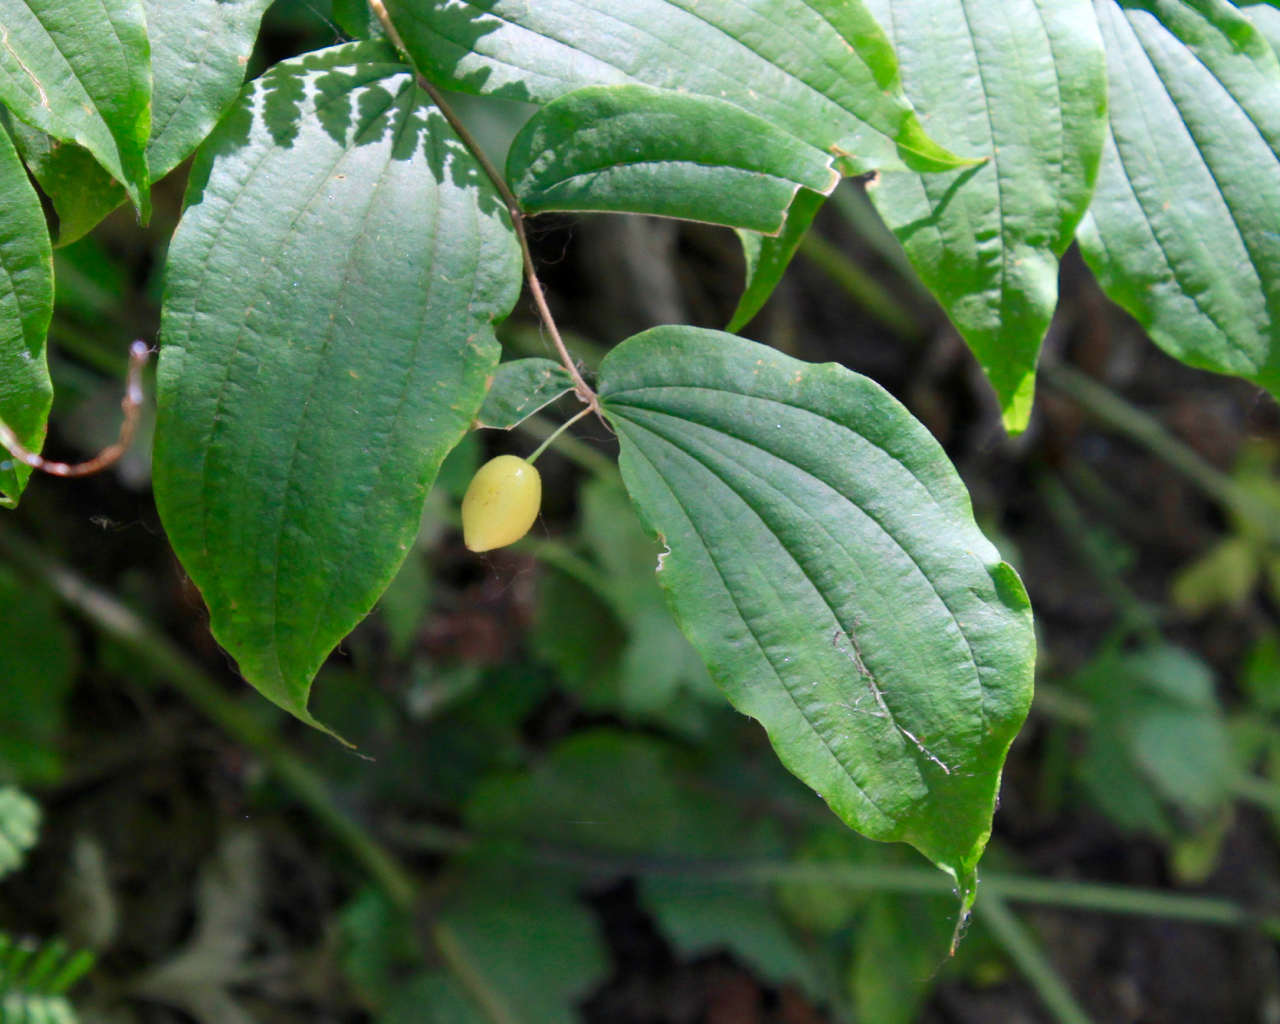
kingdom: Plantae
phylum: Tracheophyta
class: Liliopsida
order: Liliales
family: Liliaceae
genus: Prosartes
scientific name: Prosartes hookeri
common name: Fairy-bells
